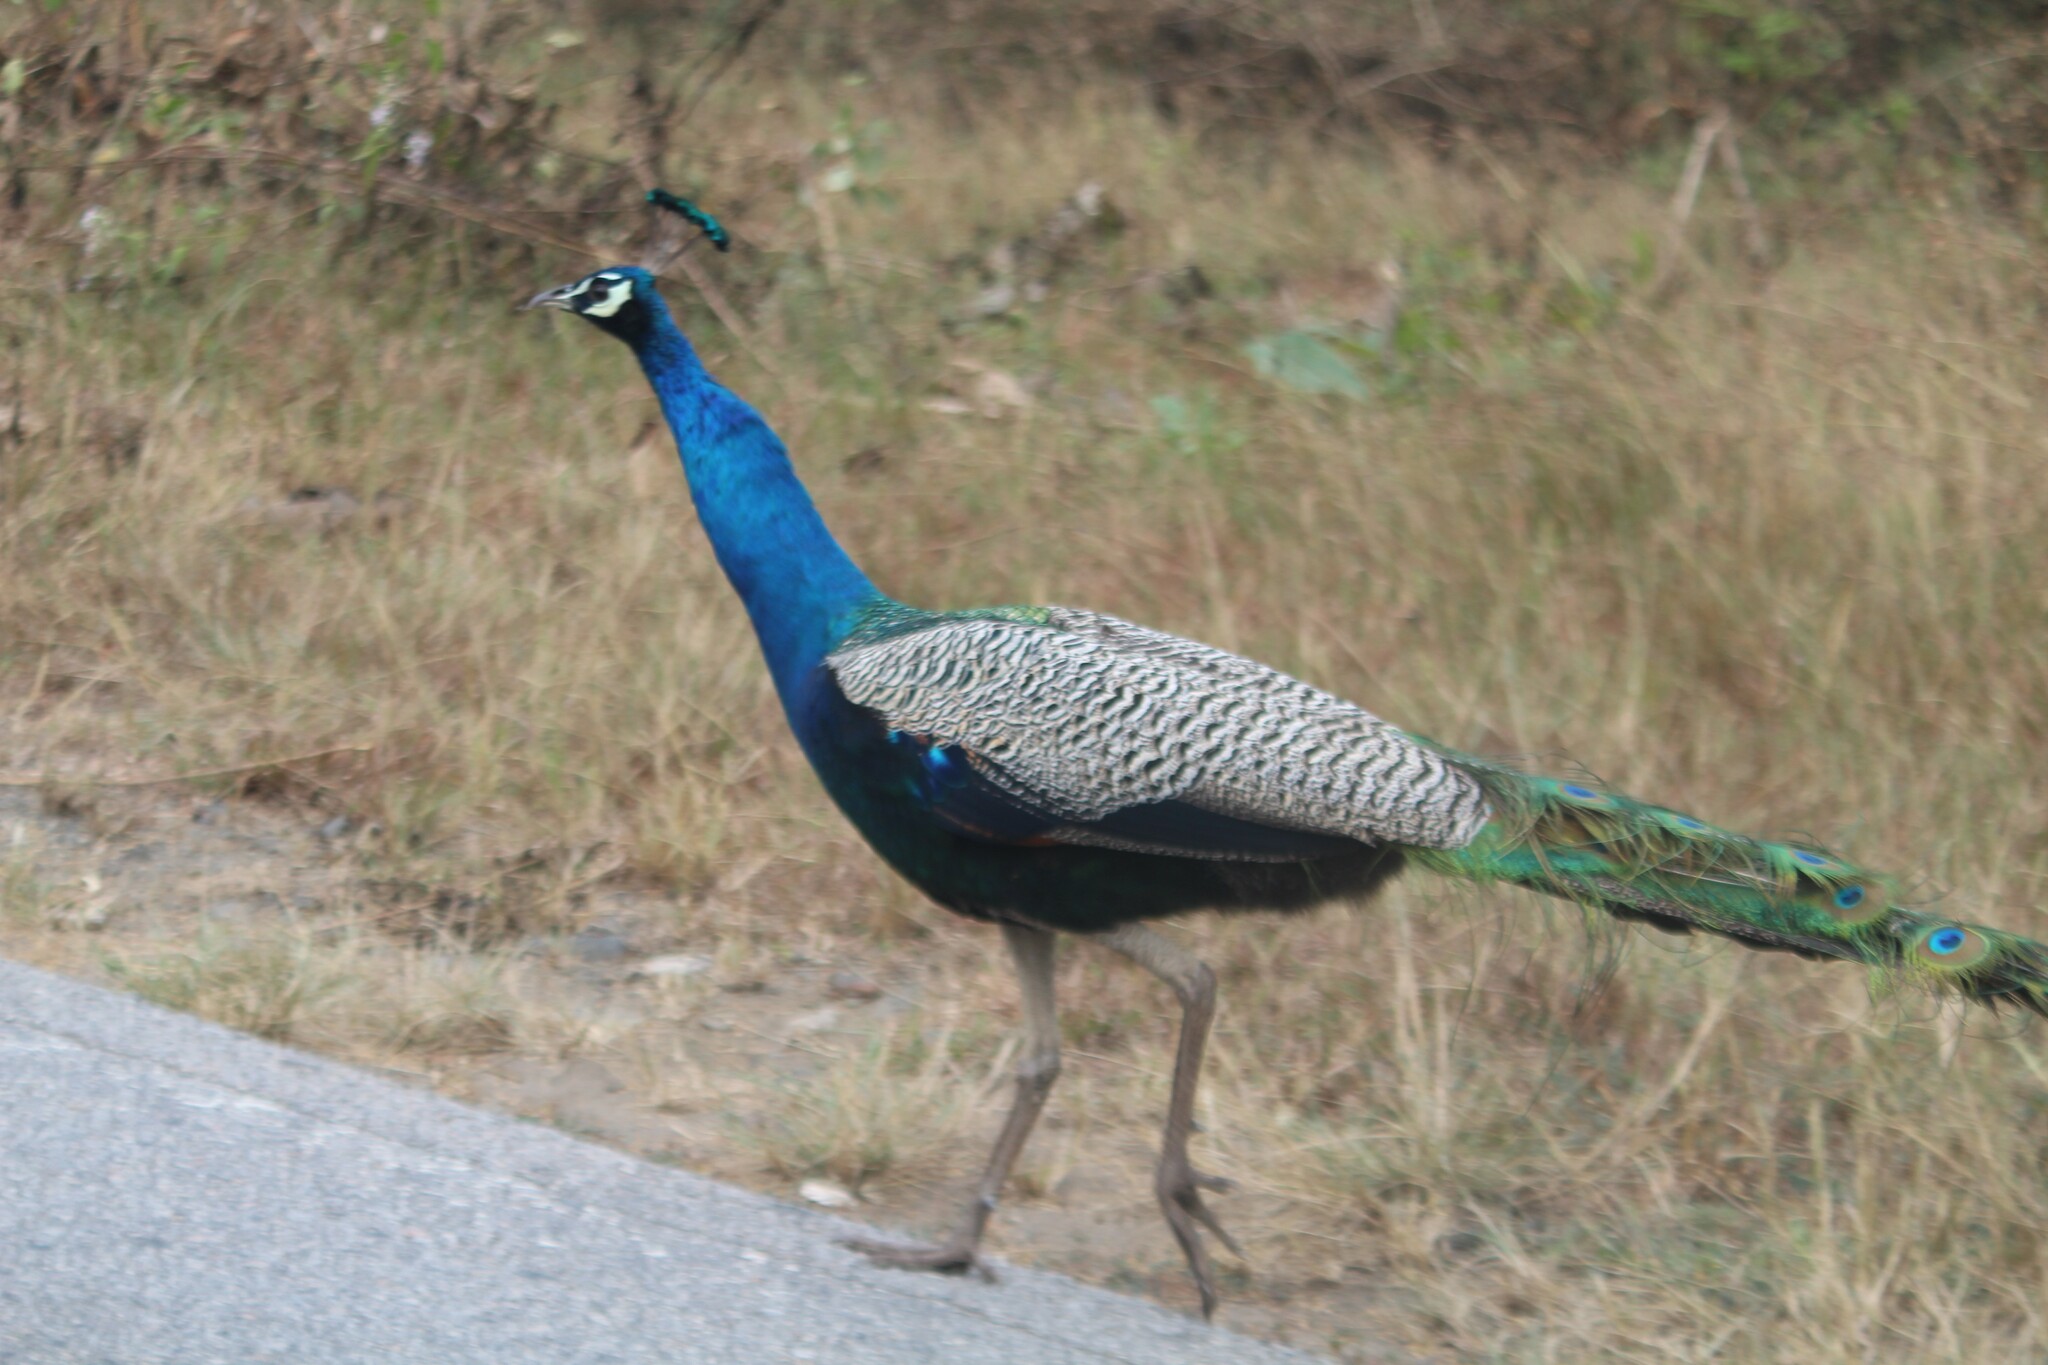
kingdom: Animalia
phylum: Chordata
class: Aves
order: Galliformes
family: Phasianidae
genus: Pavo
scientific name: Pavo cristatus
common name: Indian peafowl
